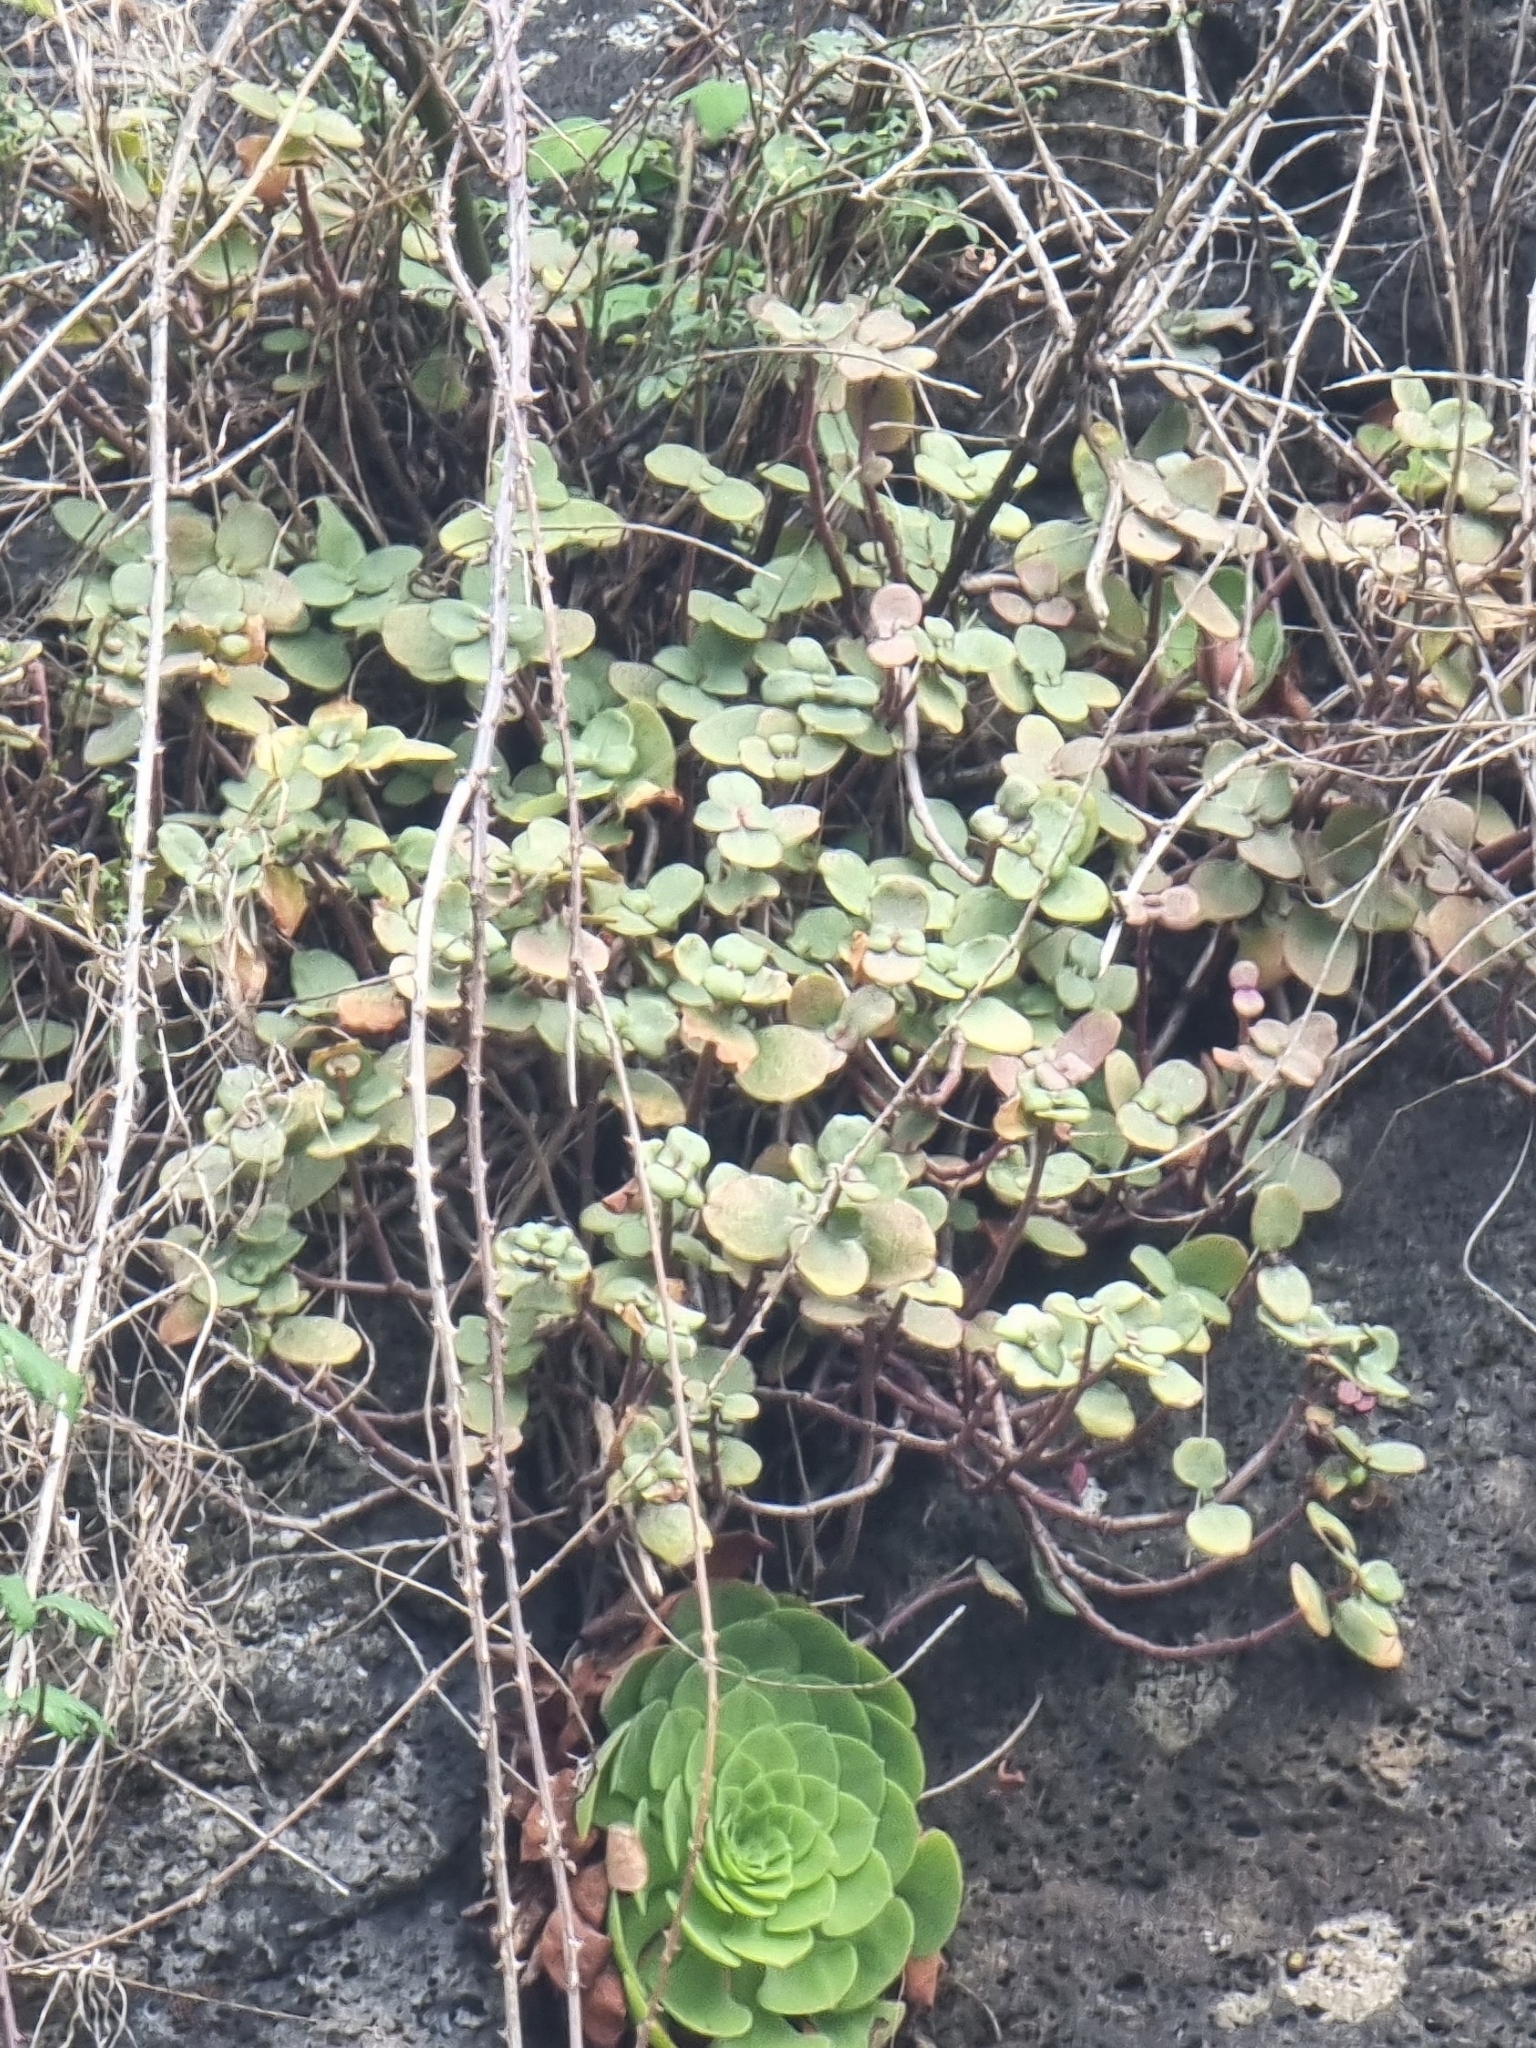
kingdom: Plantae
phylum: Tracheophyta
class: Magnoliopsida
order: Saxifragales
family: Crassulaceae
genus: Crassula
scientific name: Crassula multicava
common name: Cape province pygmyweed
